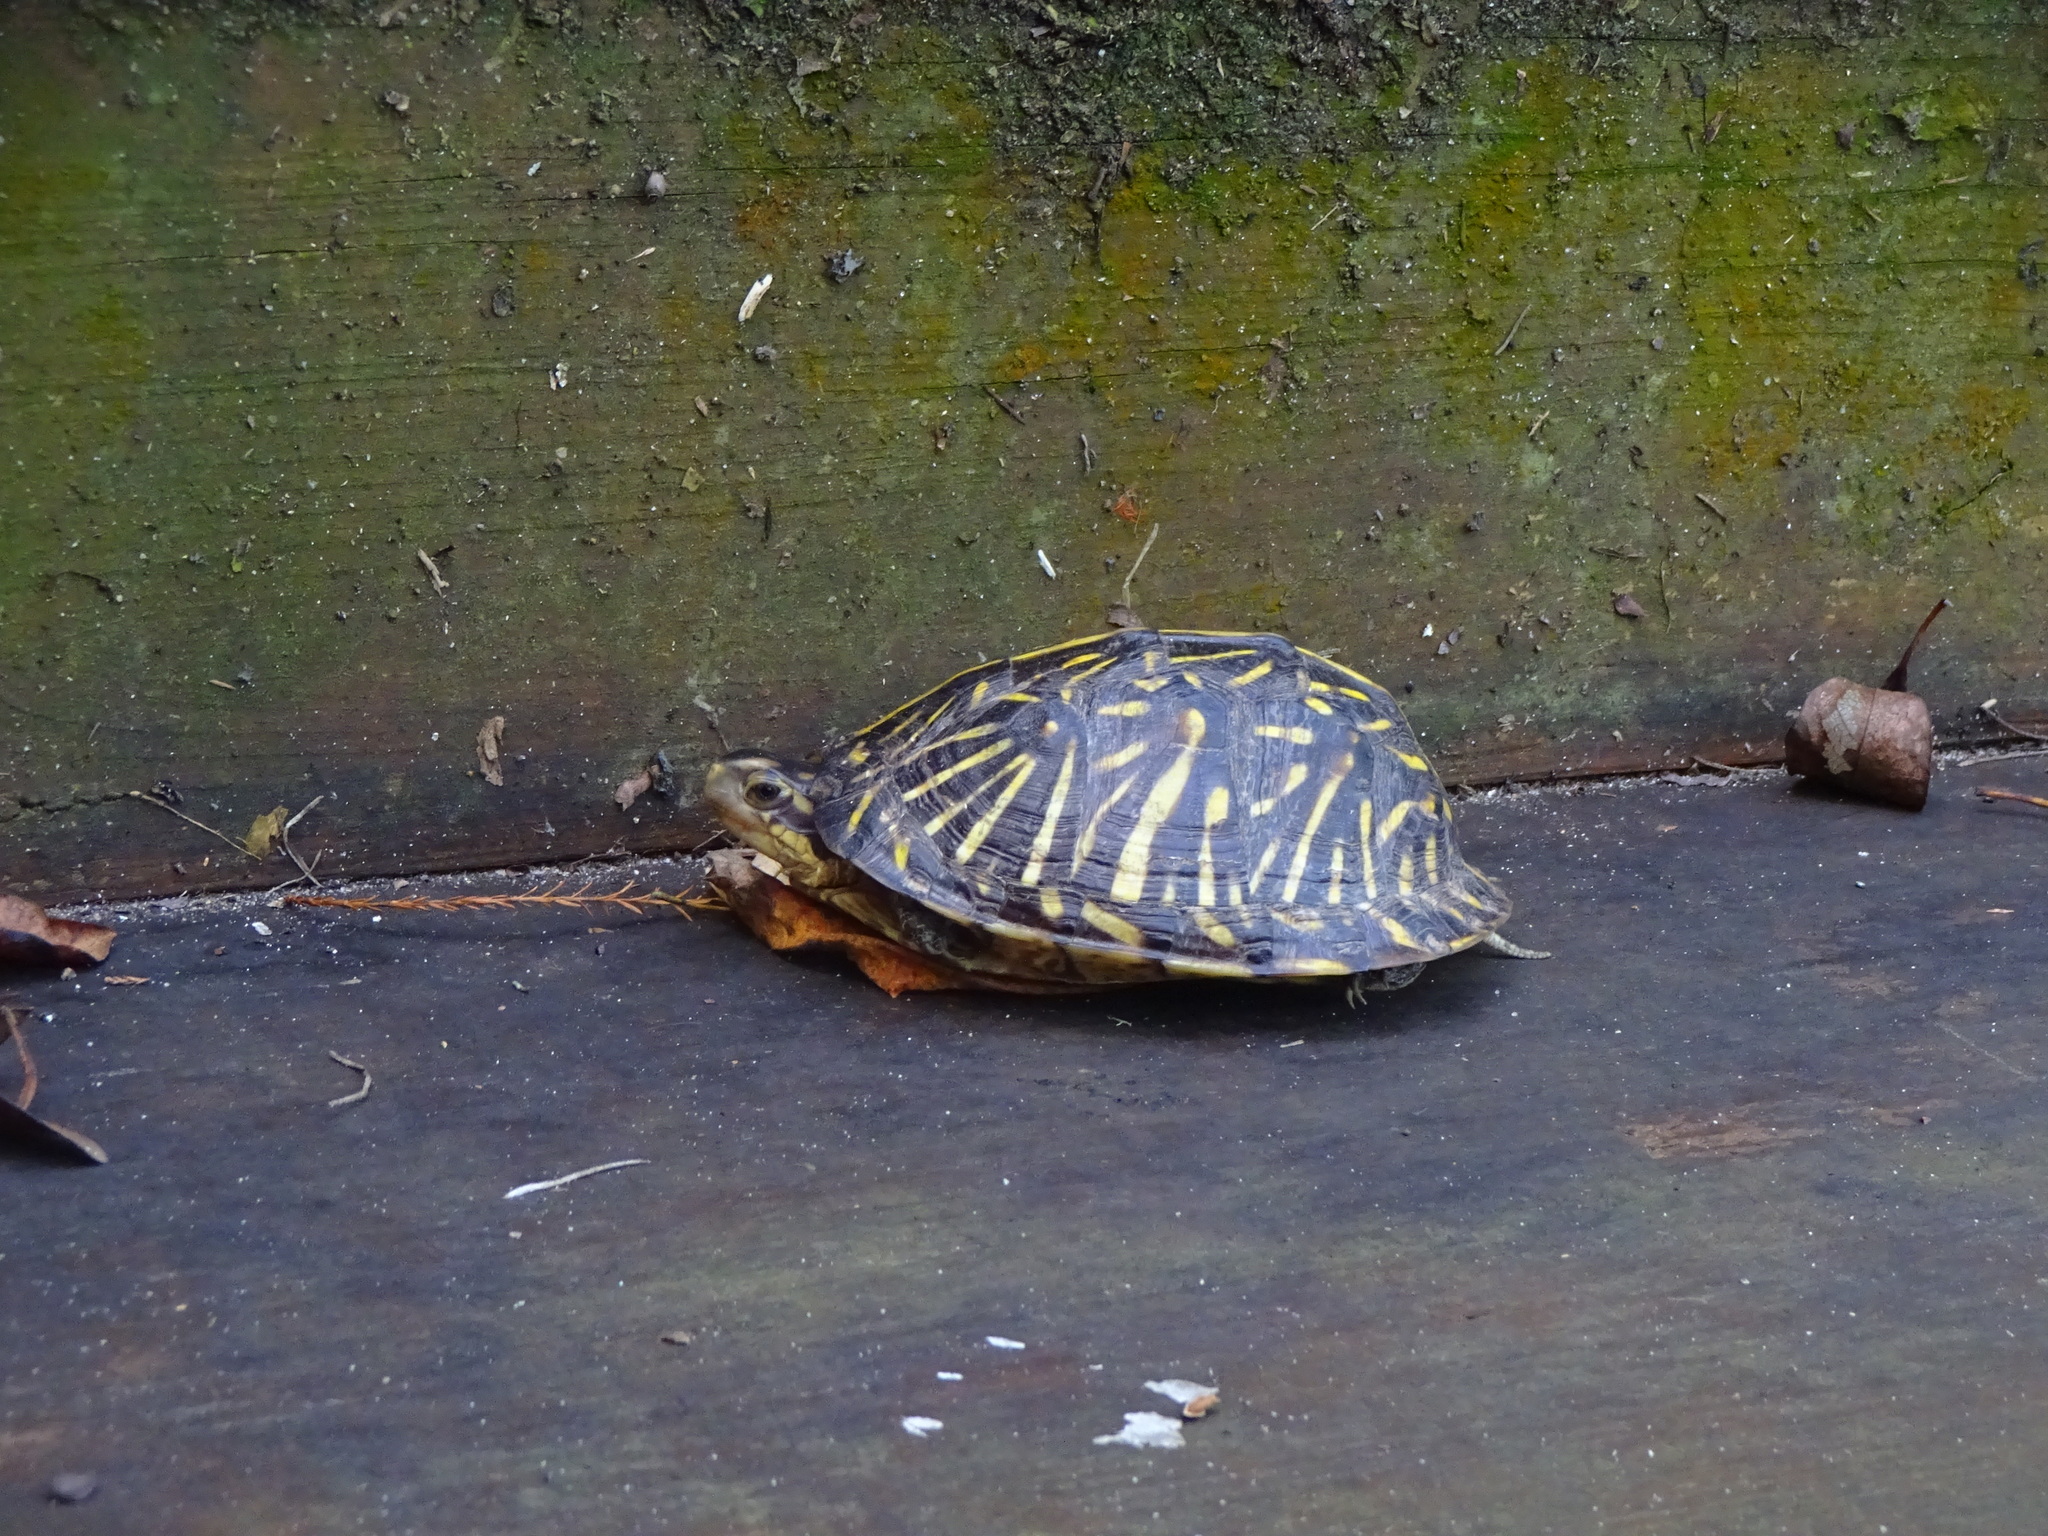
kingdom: Animalia
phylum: Chordata
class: Testudines
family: Emydidae
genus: Terrapene
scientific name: Terrapene carolina
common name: Common box turtle
